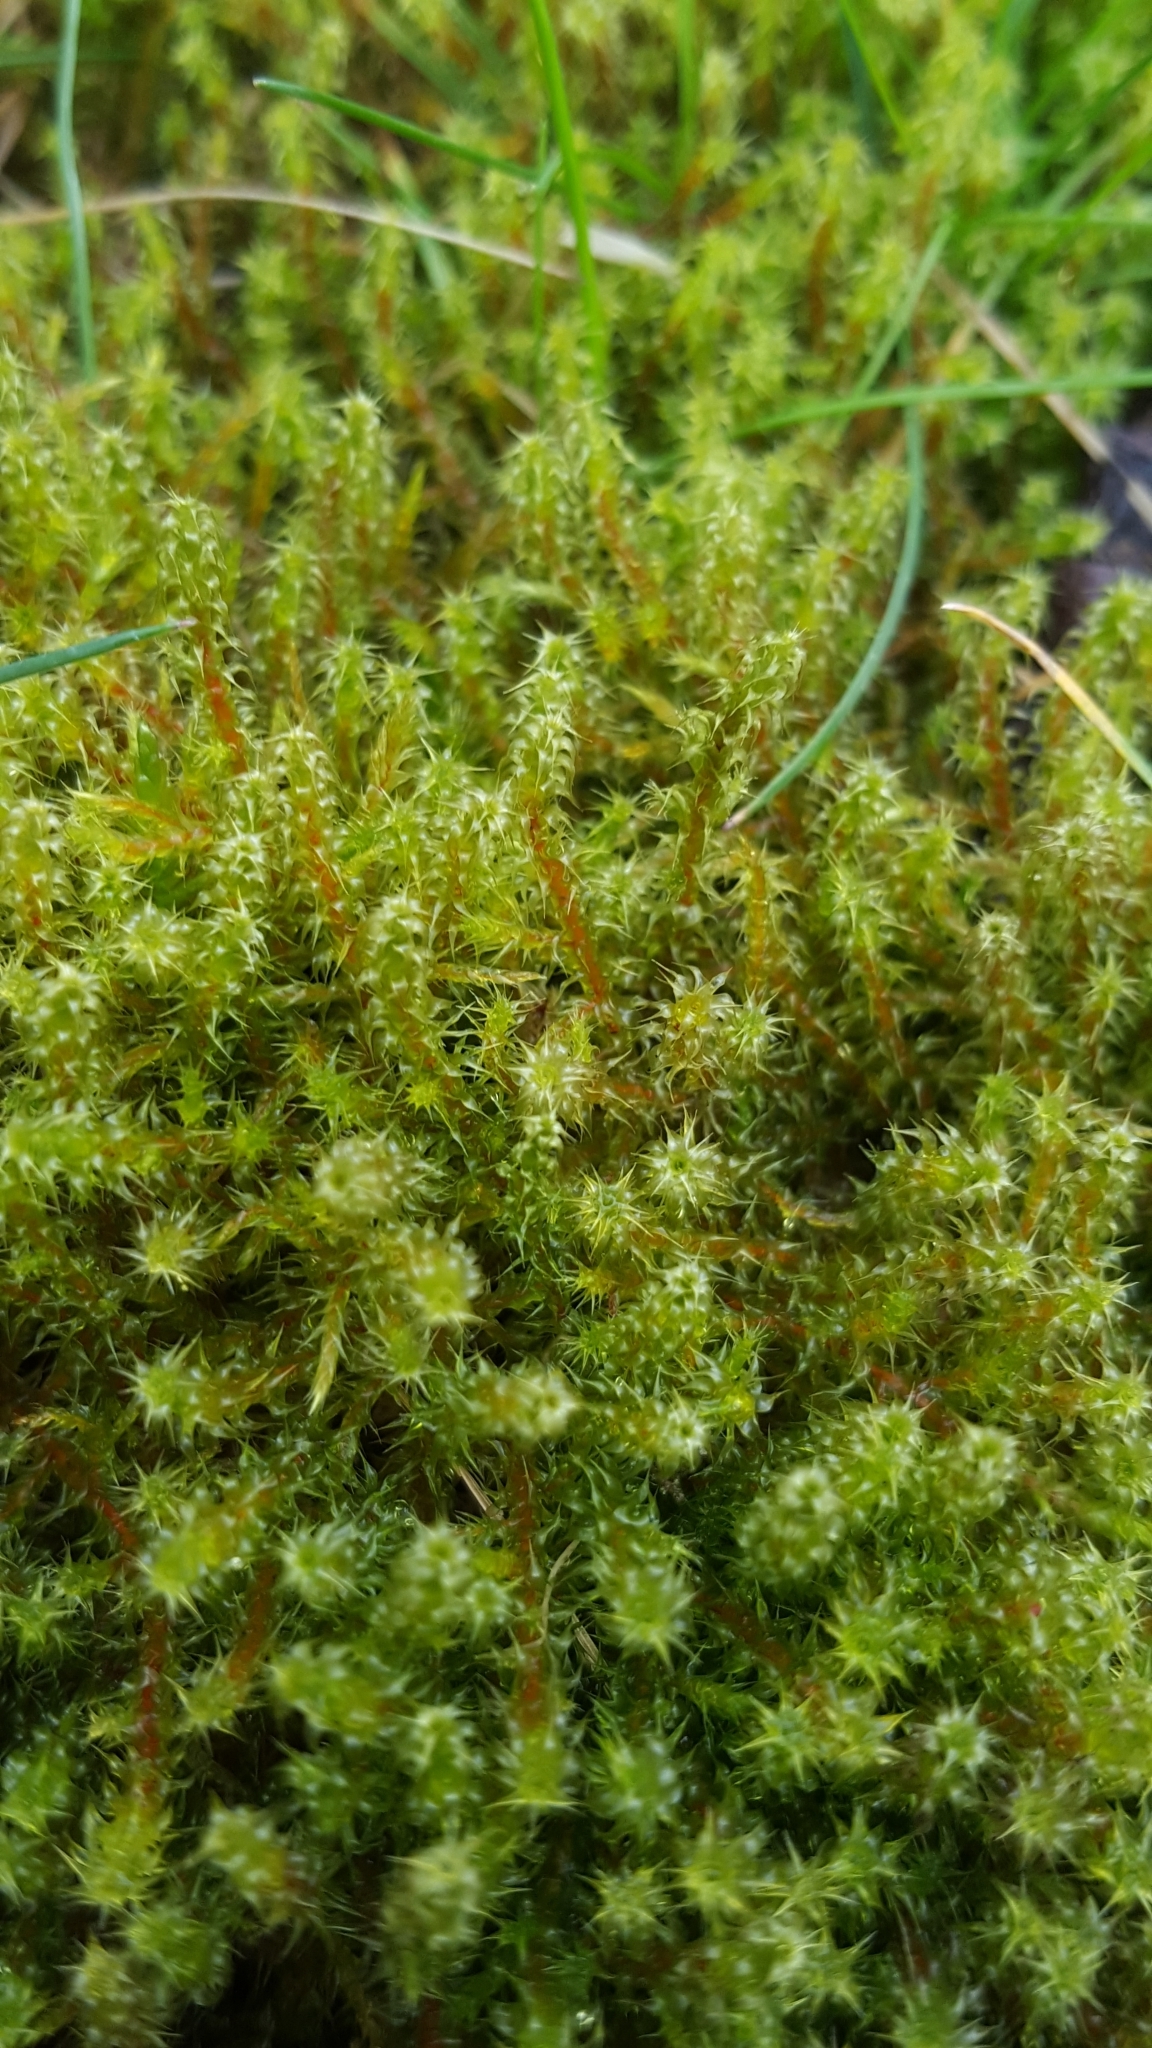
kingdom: Plantae
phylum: Bryophyta
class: Bryopsida
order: Hypnales
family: Hylocomiaceae
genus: Rhytidiadelphus
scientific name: Rhytidiadelphus squarrosus
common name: Springy turf-moss
